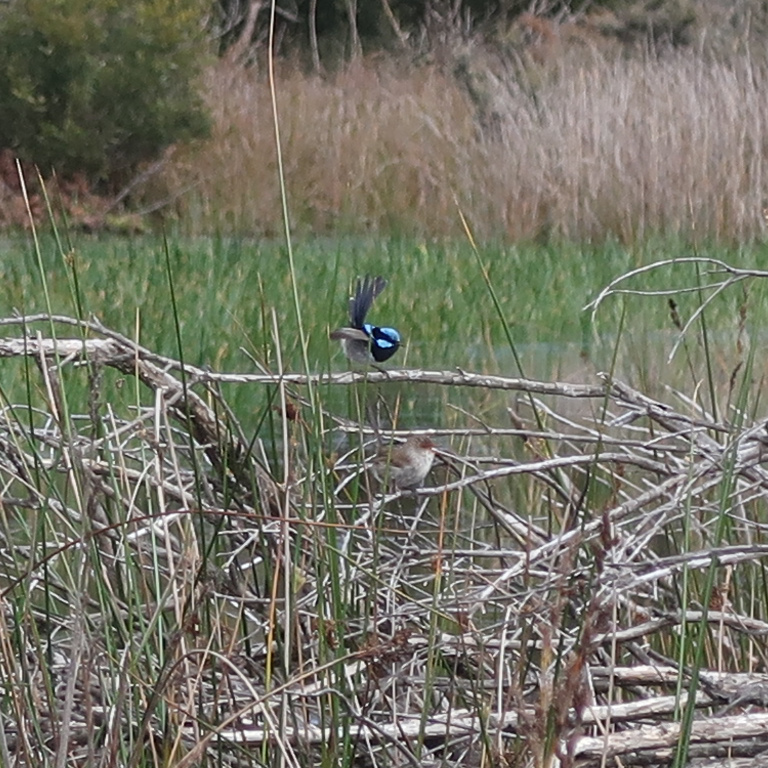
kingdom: Animalia
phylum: Chordata
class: Aves
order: Passeriformes
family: Maluridae
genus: Malurus
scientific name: Malurus cyaneus
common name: Superb fairywren
